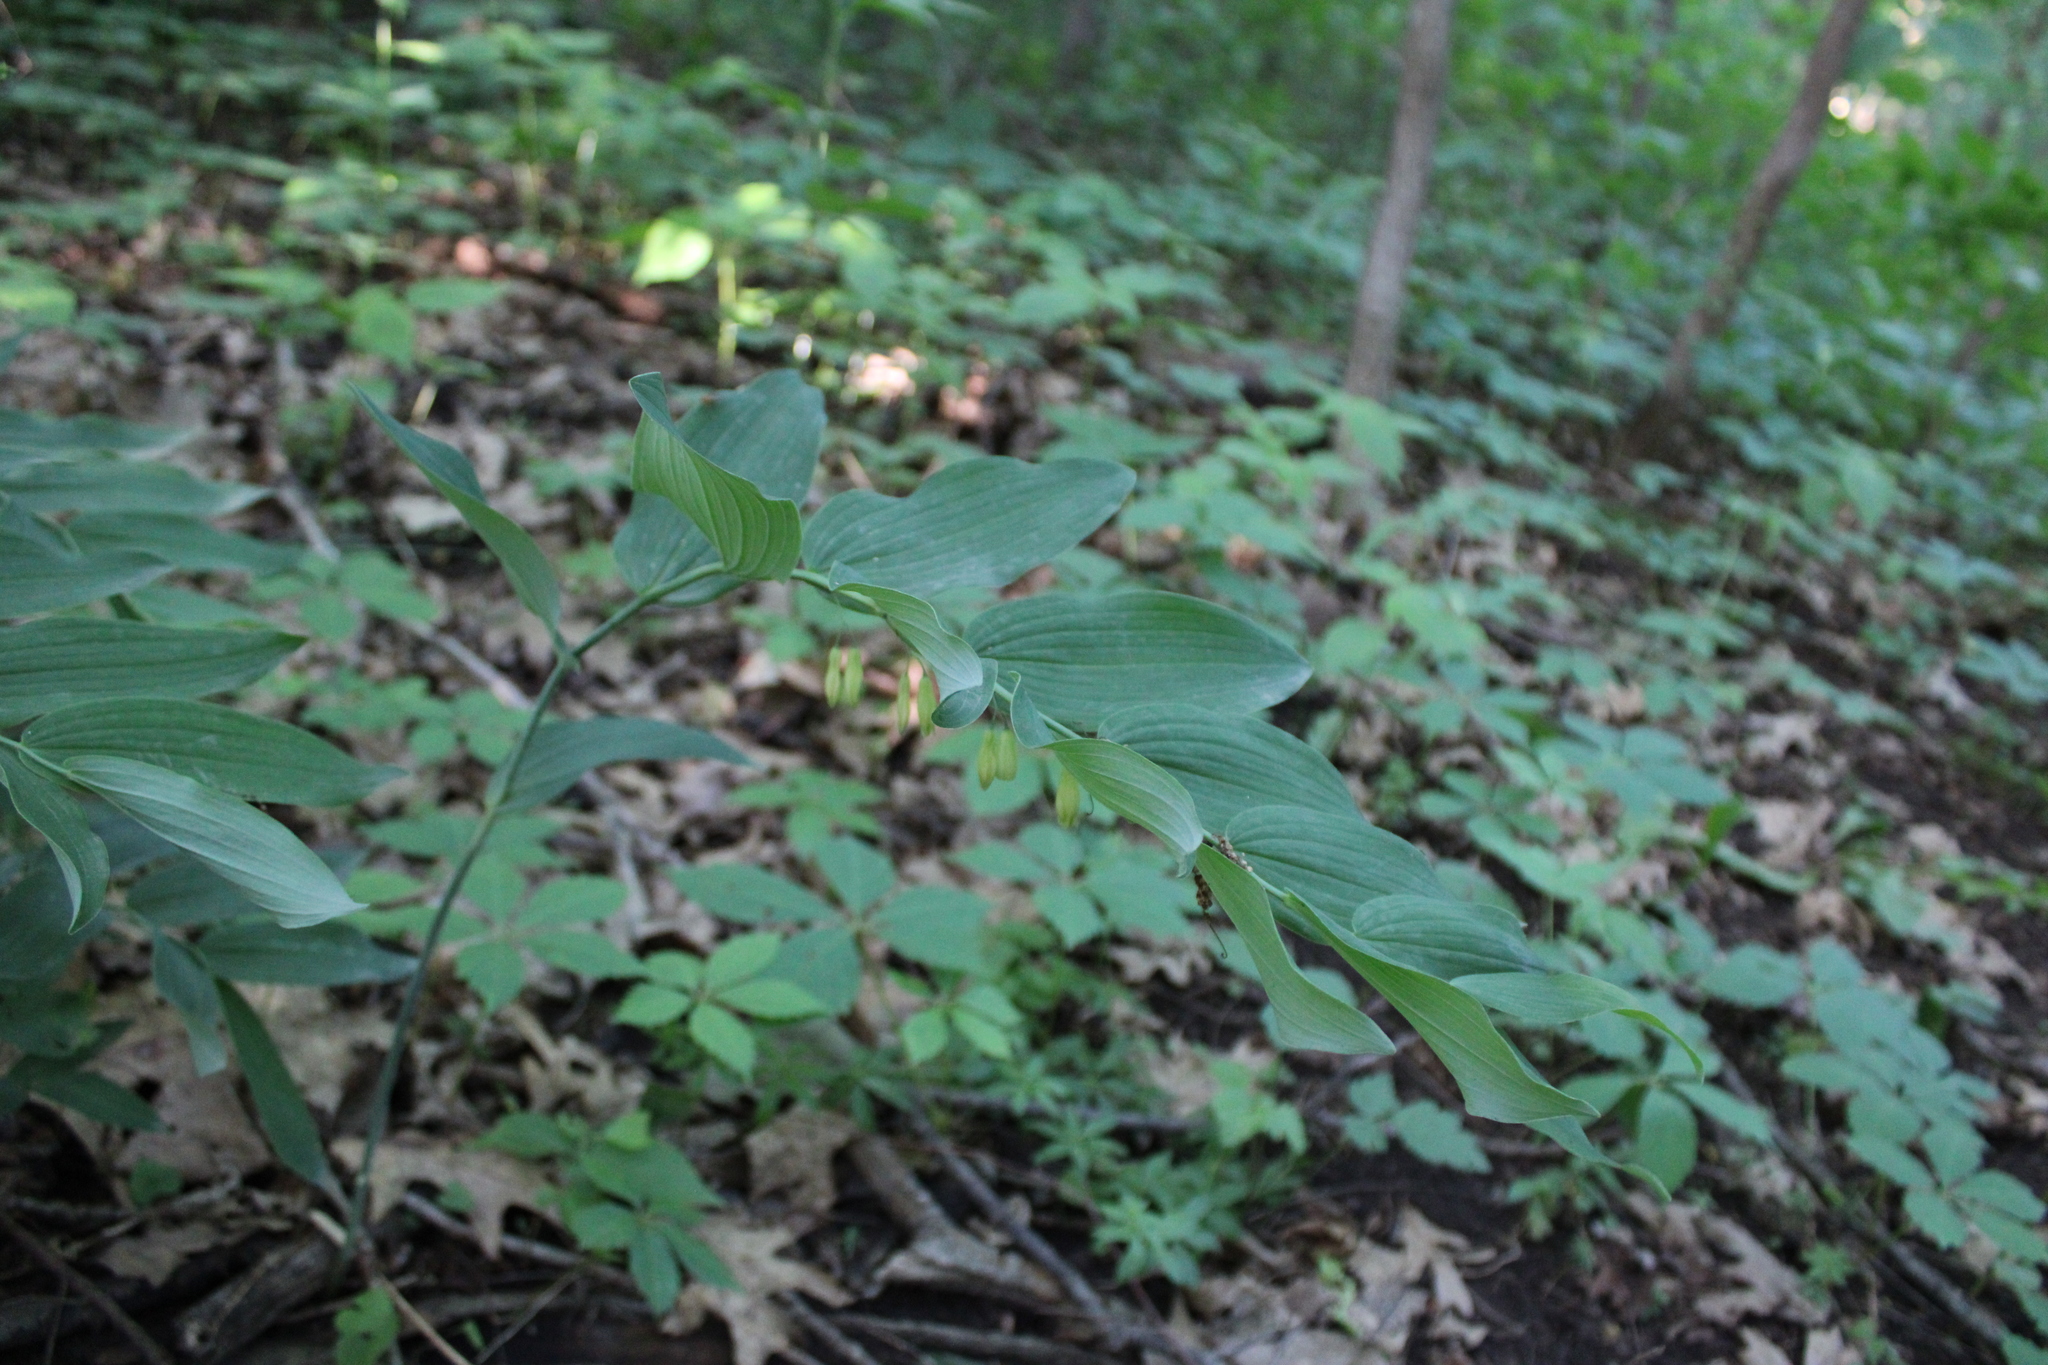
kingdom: Plantae
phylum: Tracheophyta
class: Liliopsida
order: Asparagales
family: Asparagaceae
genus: Polygonatum
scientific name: Polygonatum biflorum
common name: American solomon's-seal
